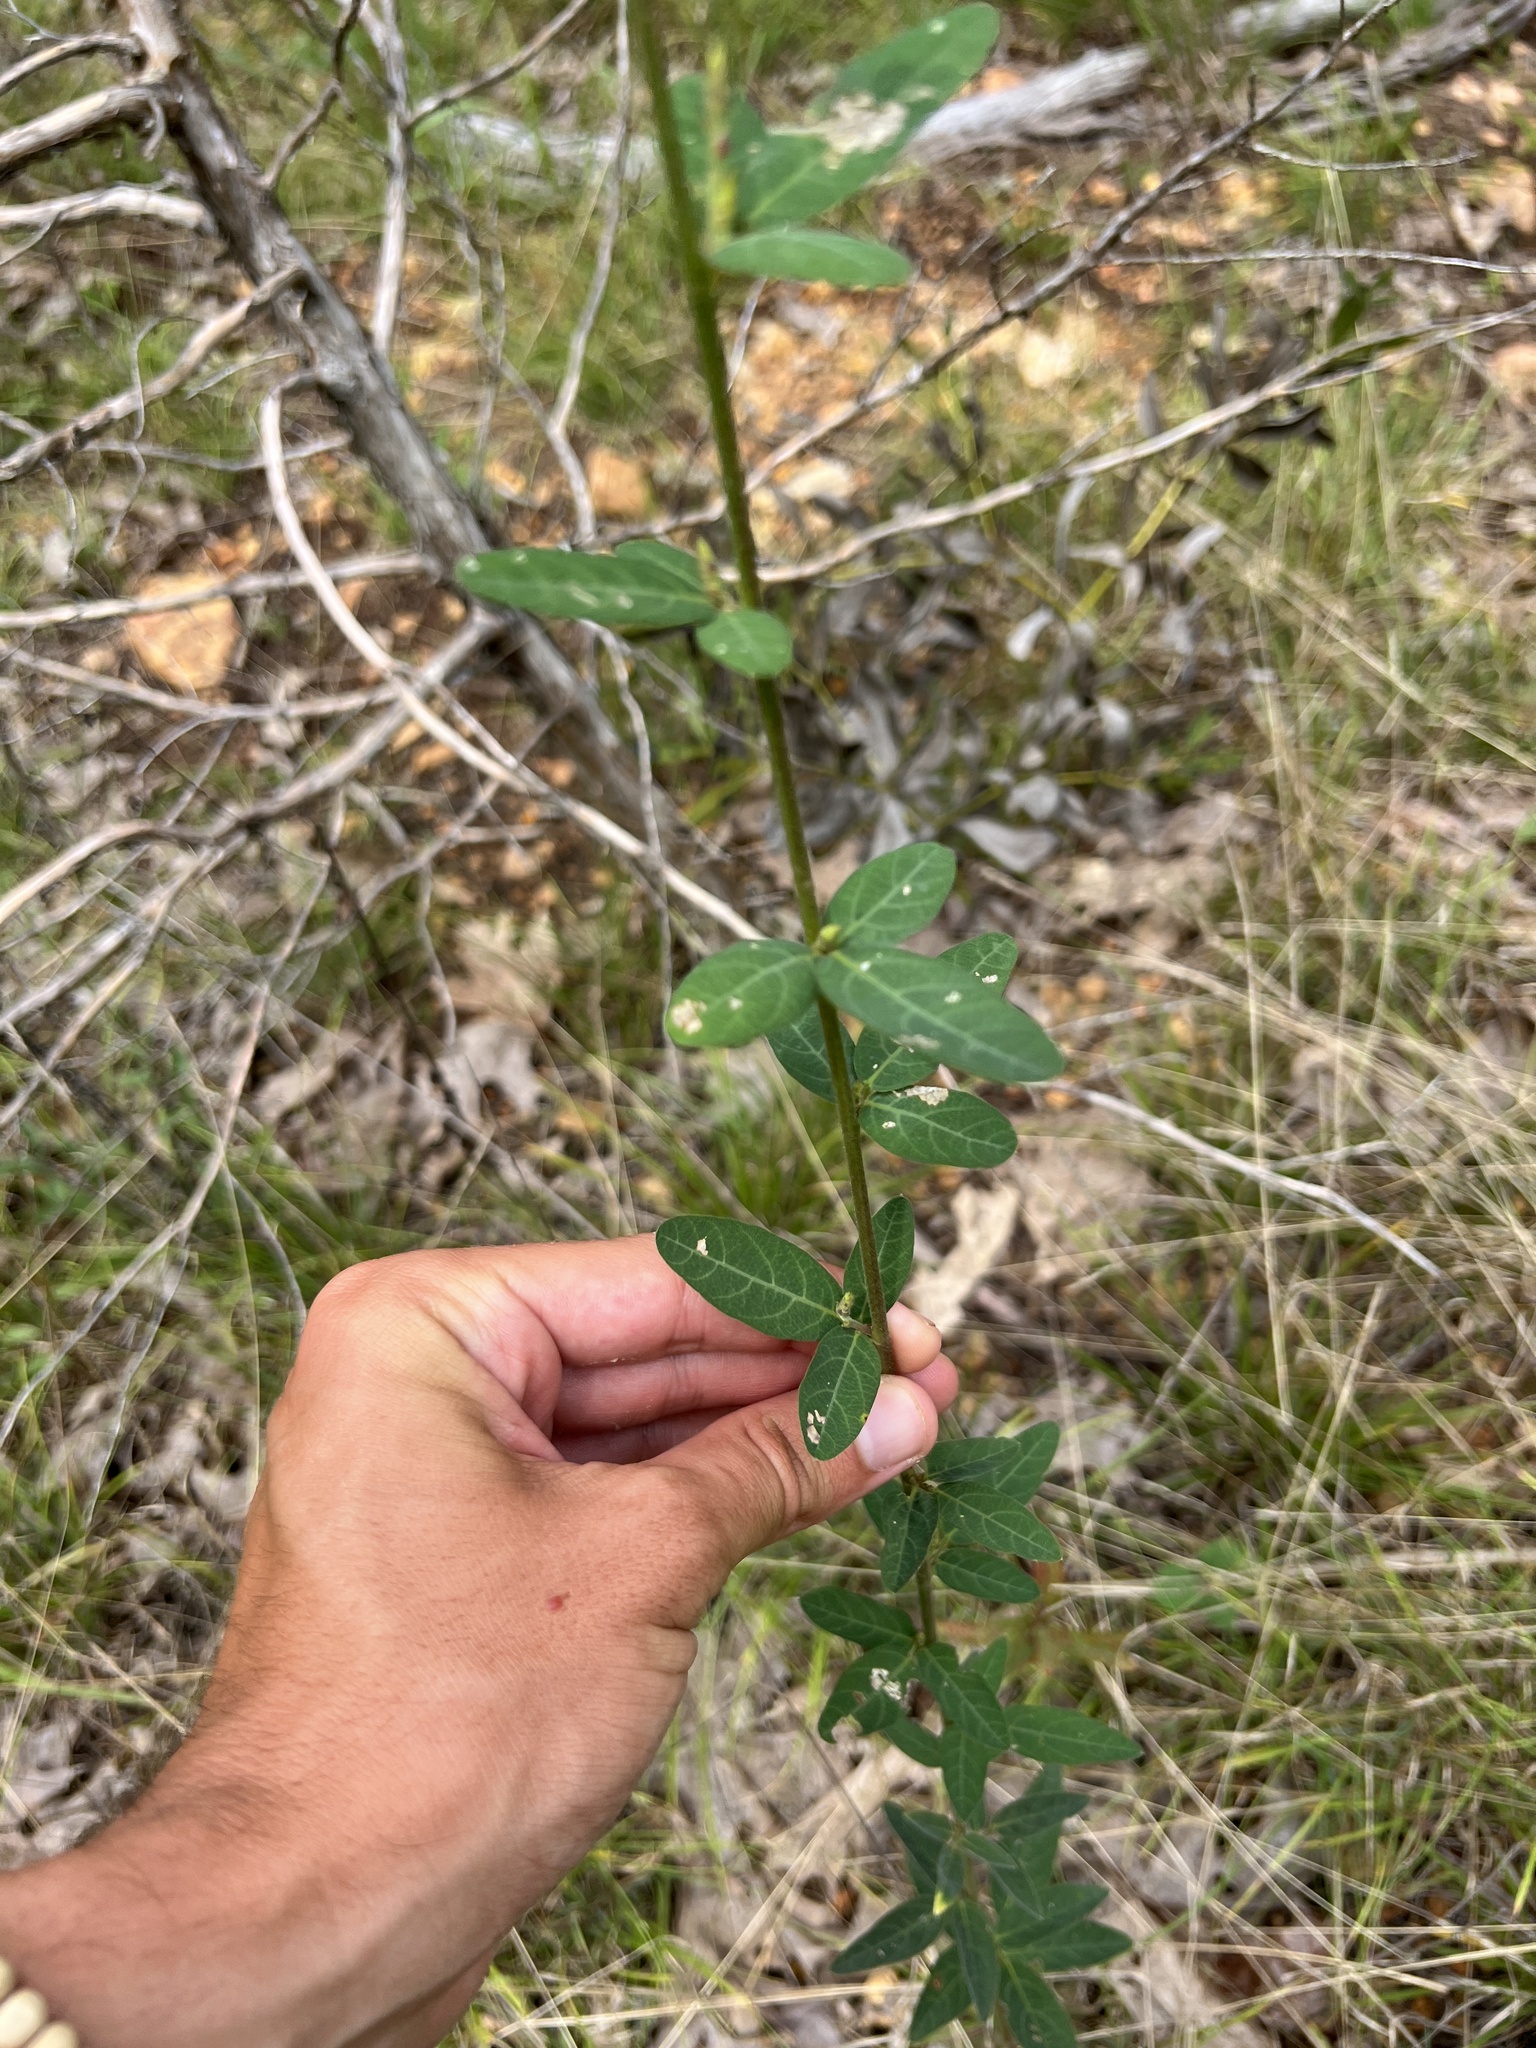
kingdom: Plantae
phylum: Tracheophyta
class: Magnoliopsida
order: Fabales
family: Fabaceae
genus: Desmodium
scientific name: Desmodium obtusum
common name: Stiff tick trefoil
